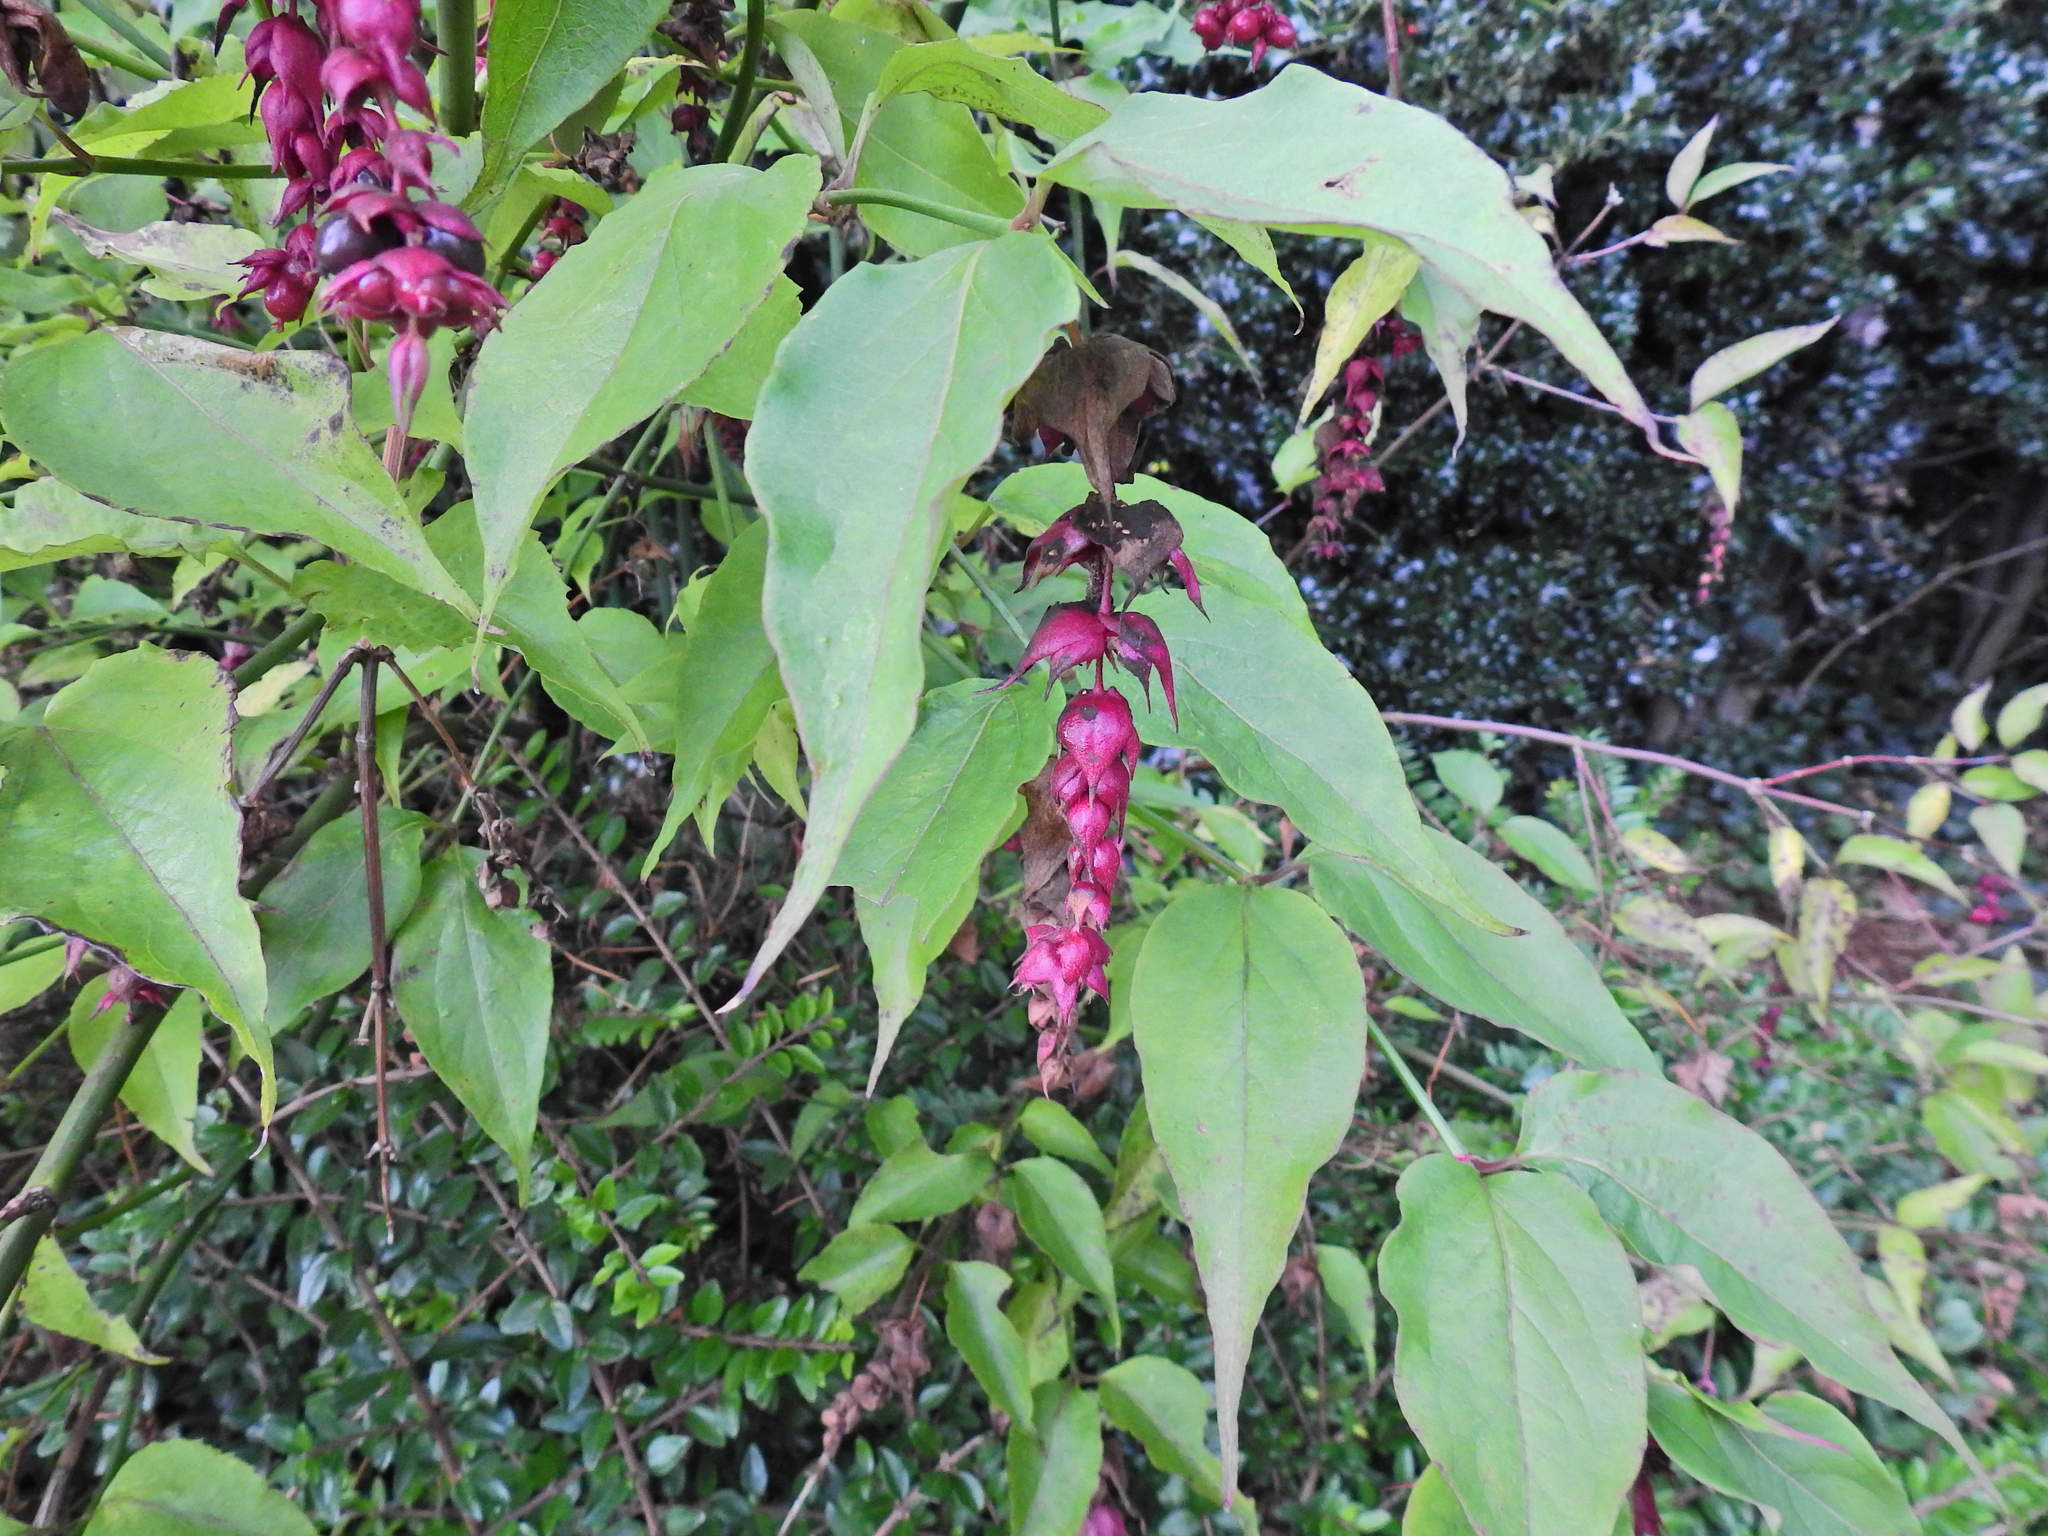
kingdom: Plantae
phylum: Tracheophyta
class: Magnoliopsida
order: Dipsacales
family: Caprifoliaceae
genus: Leycesteria
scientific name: Leycesteria formosa
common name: Himalayan honeysuckle
